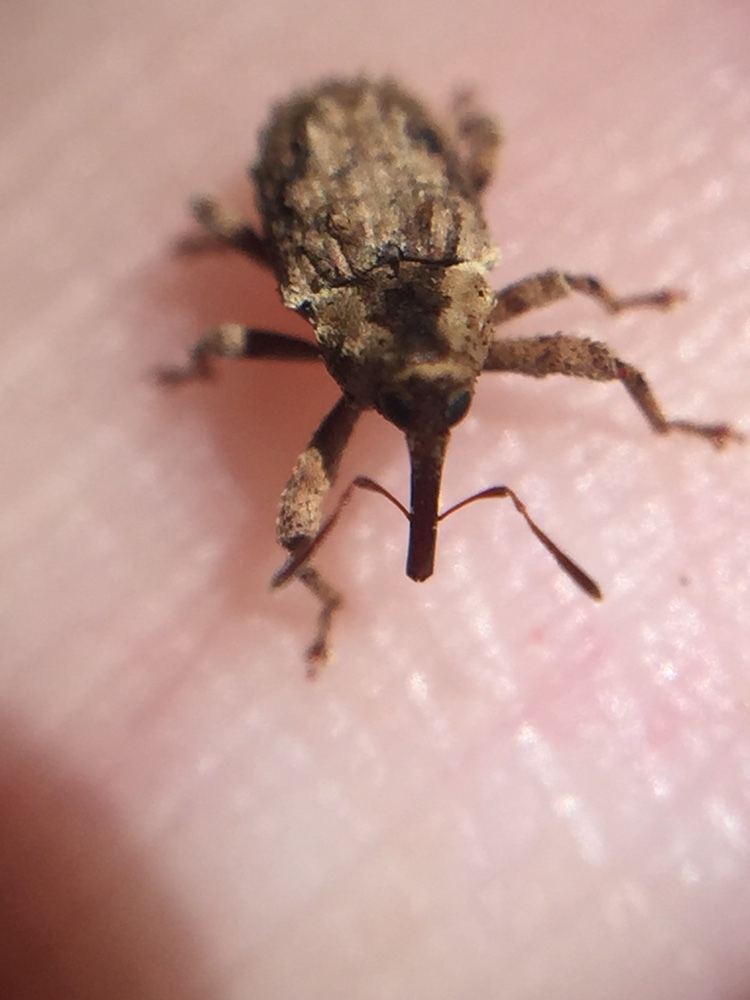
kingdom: Animalia
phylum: Arthropoda
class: Insecta
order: Coleoptera
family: Curculionidae
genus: Mecistostylus
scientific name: Mecistostylus douei
